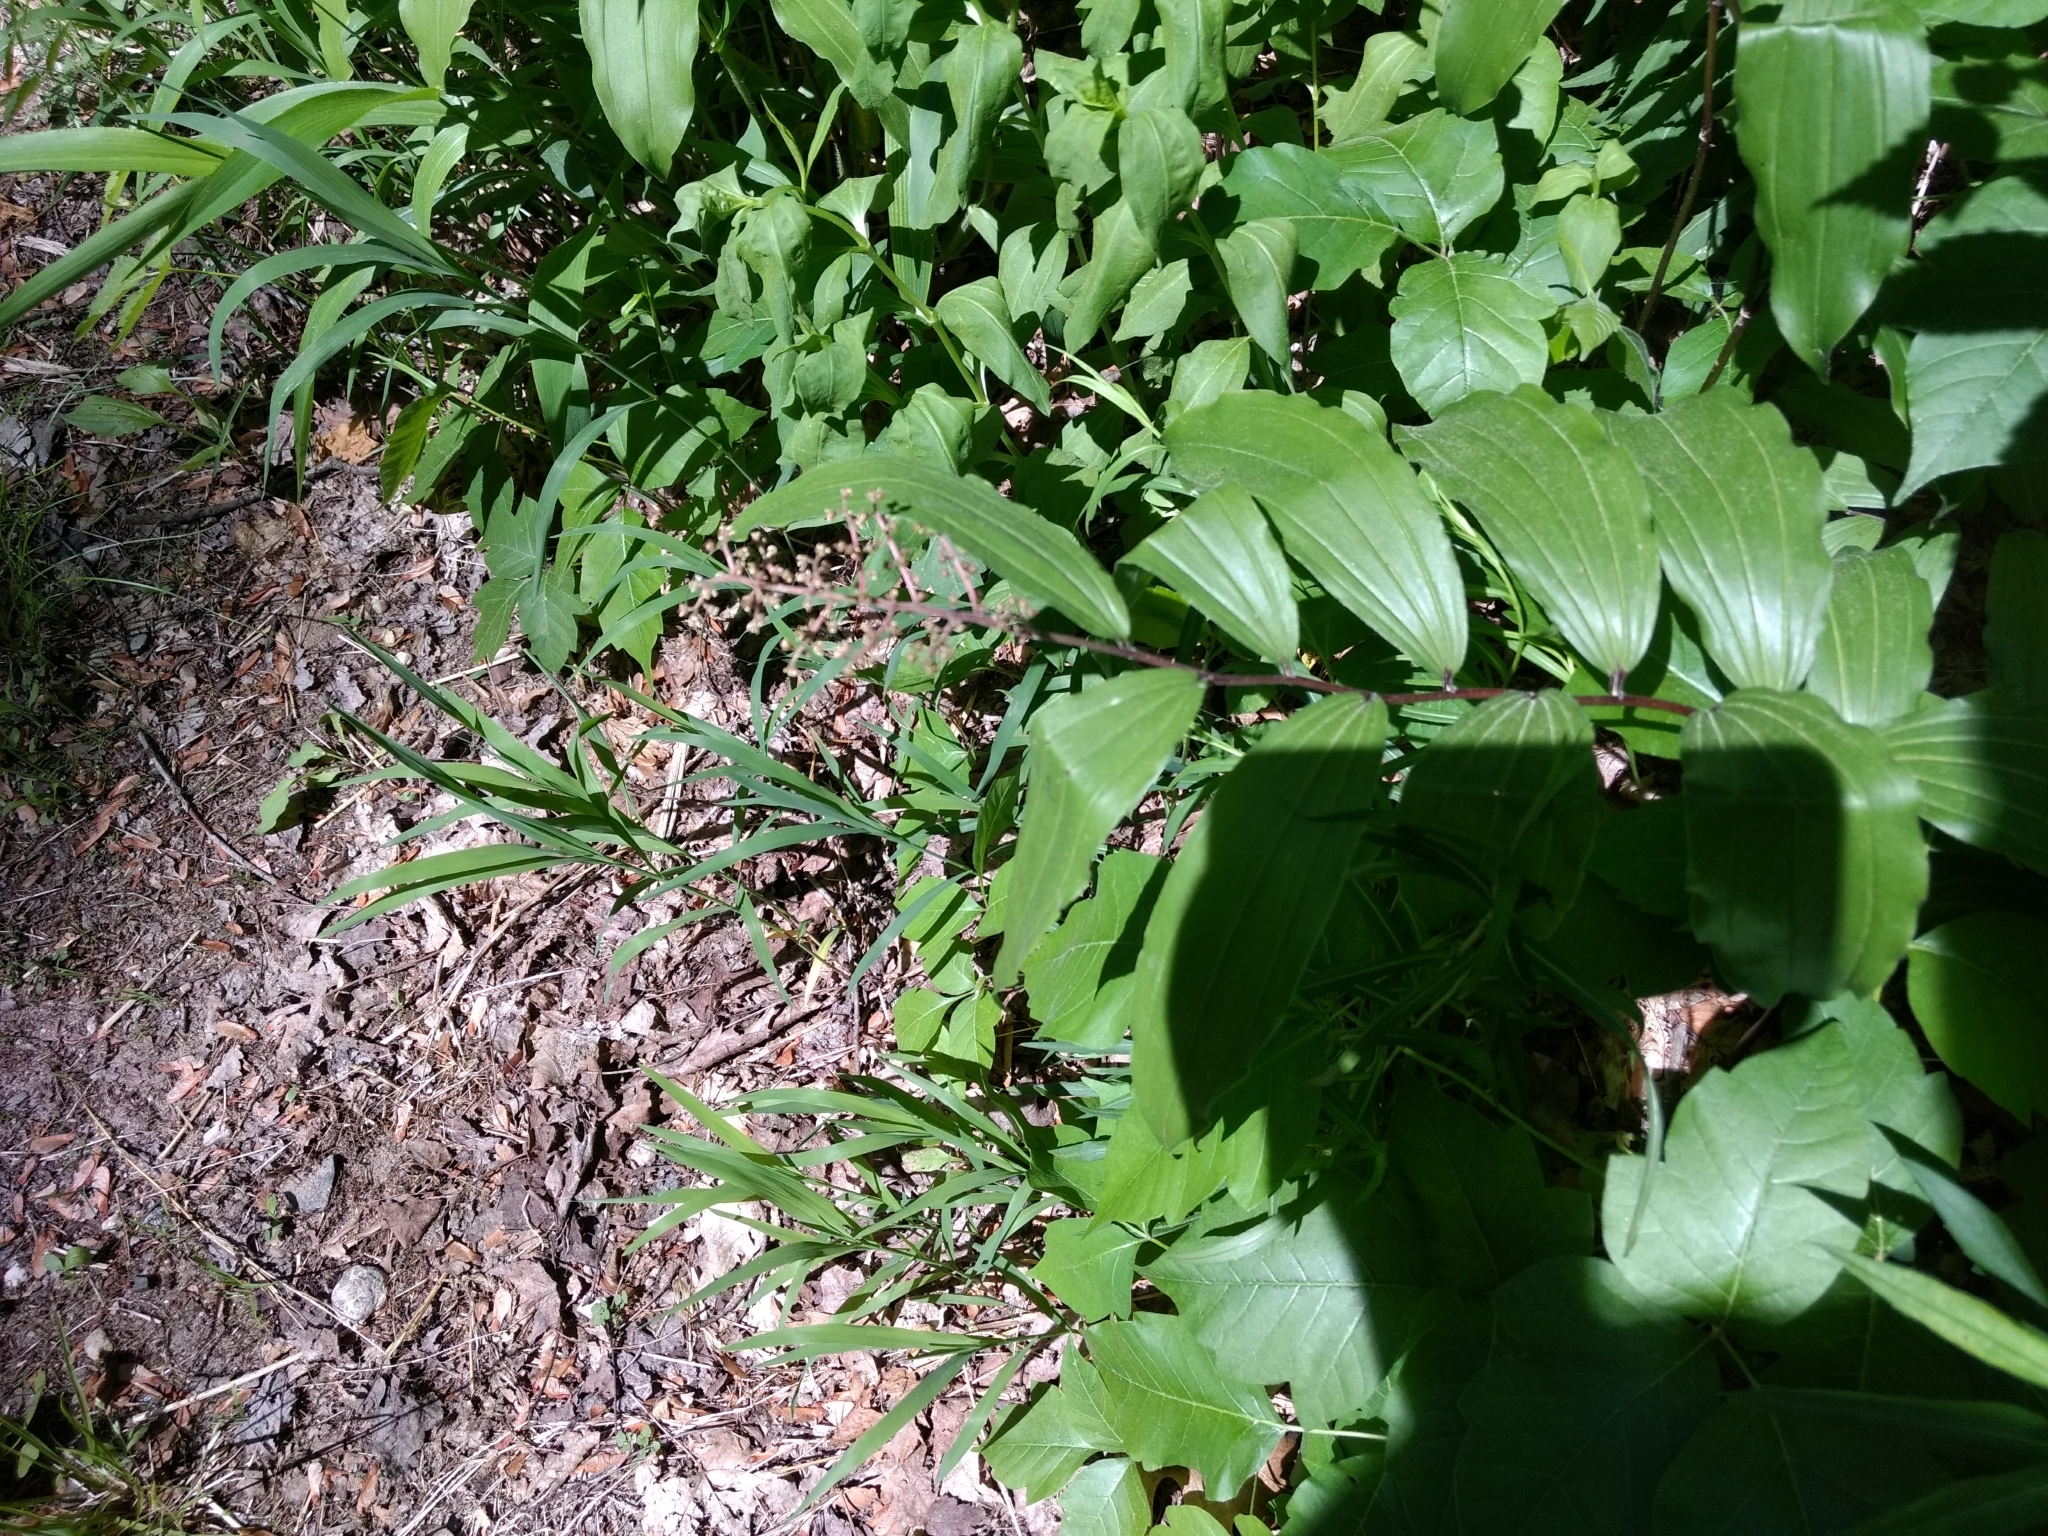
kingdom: Plantae
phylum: Tracheophyta
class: Liliopsida
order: Asparagales
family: Asparagaceae
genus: Maianthemum
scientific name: Maianthemum racemosum
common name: False spikenard
